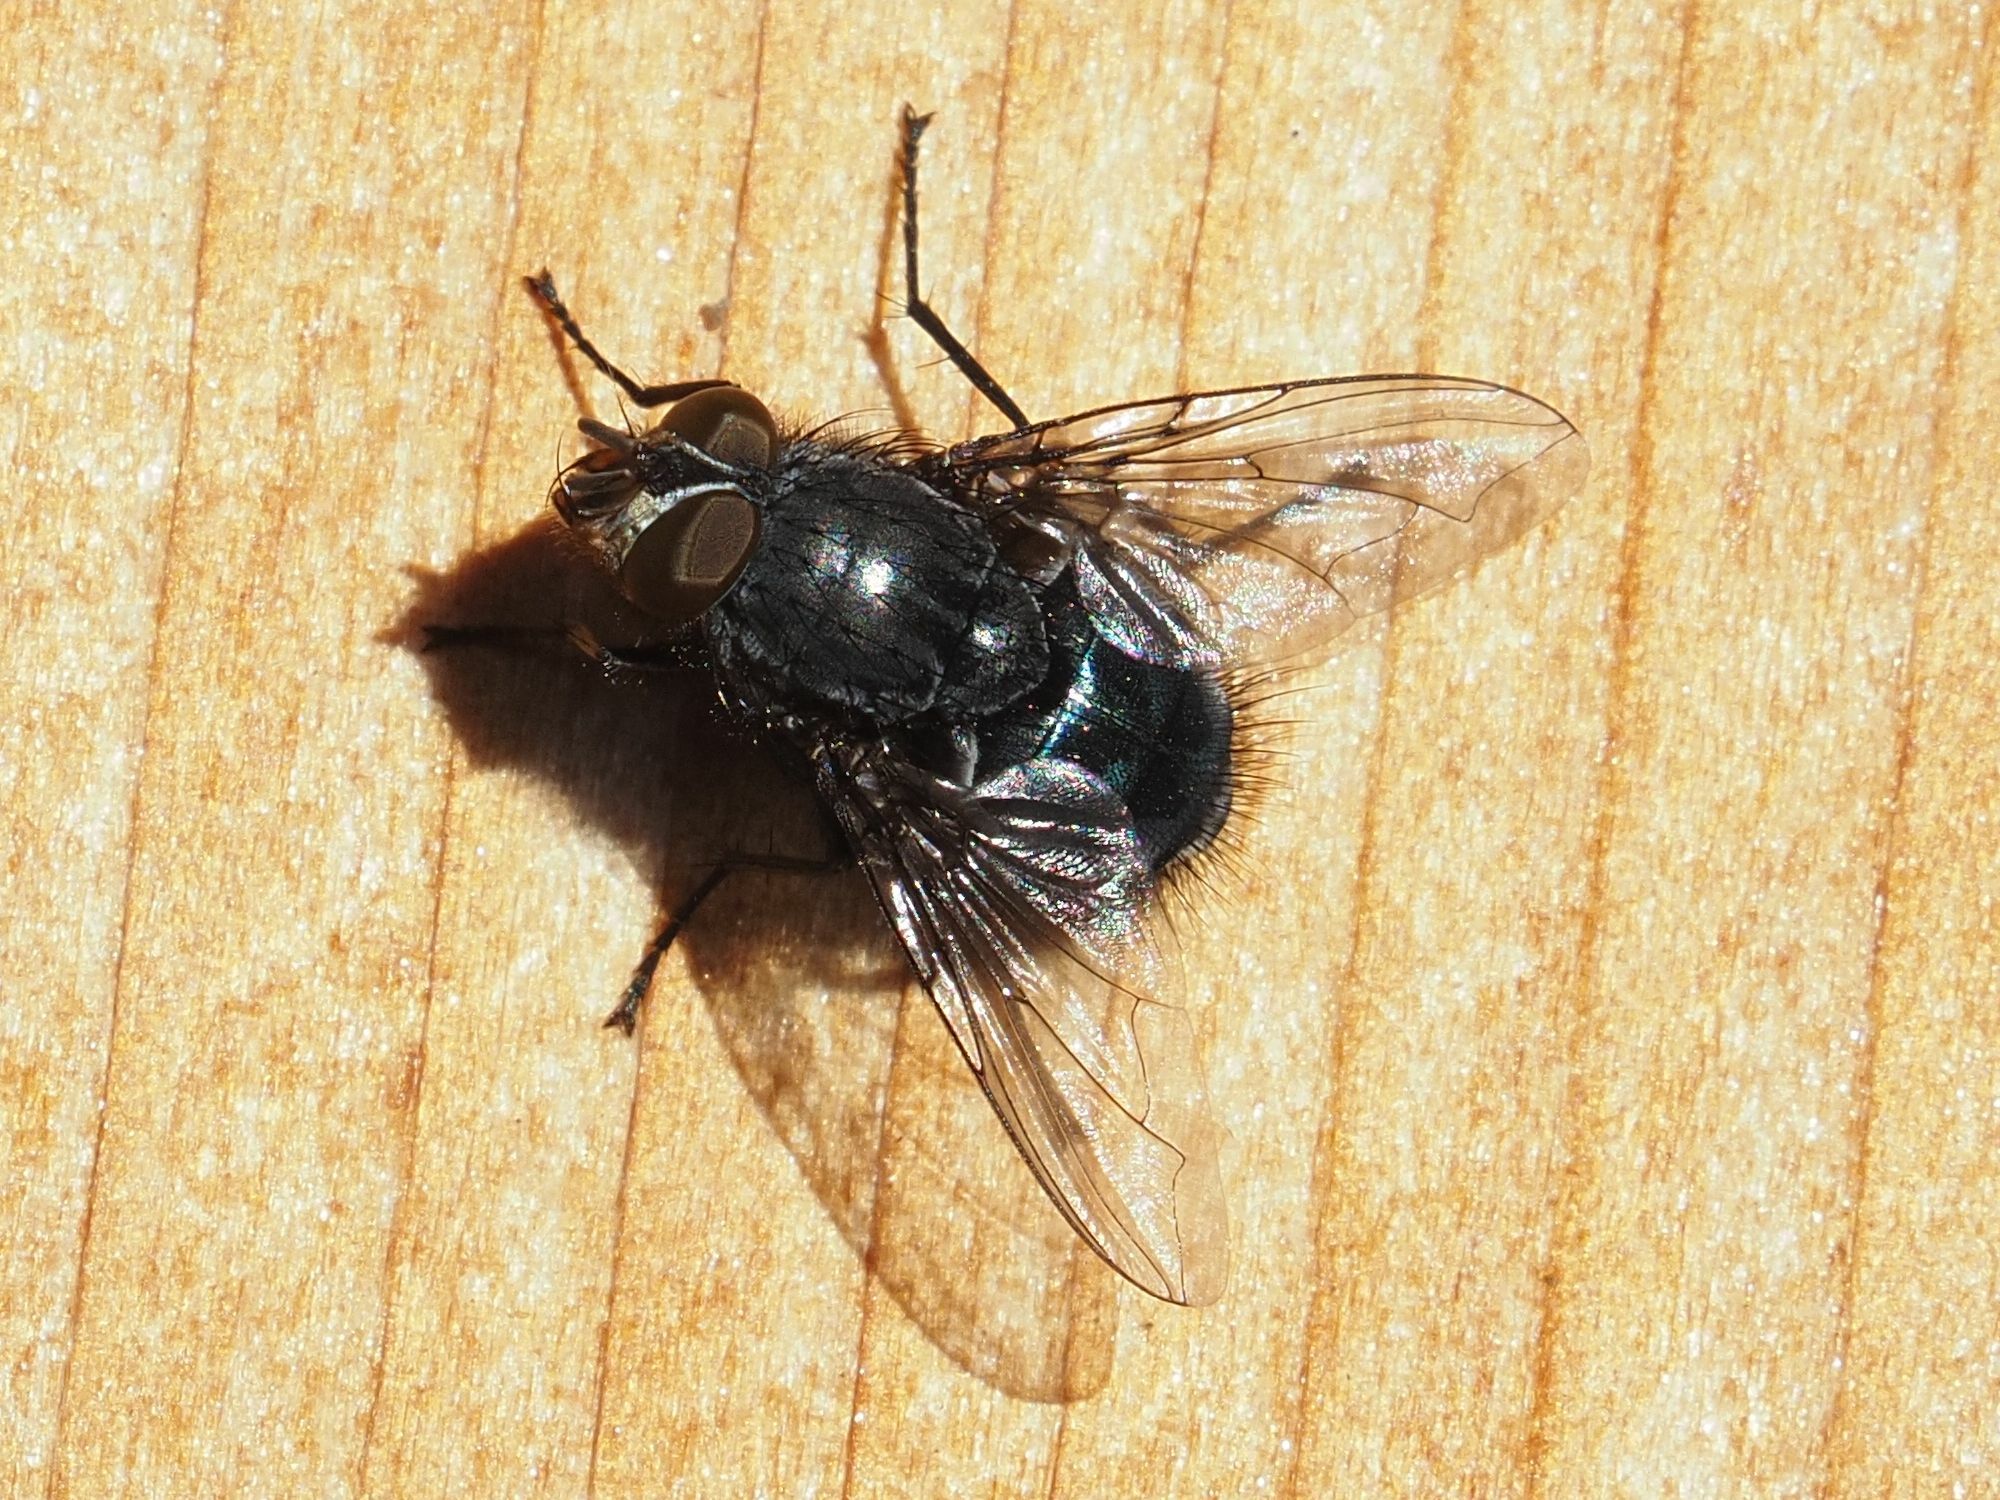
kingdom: Animalia
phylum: Arthropoda
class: Insecta
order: Diptera
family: Calliphoridae
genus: Calliphora
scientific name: Calliphora vicina
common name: Common blow flie
